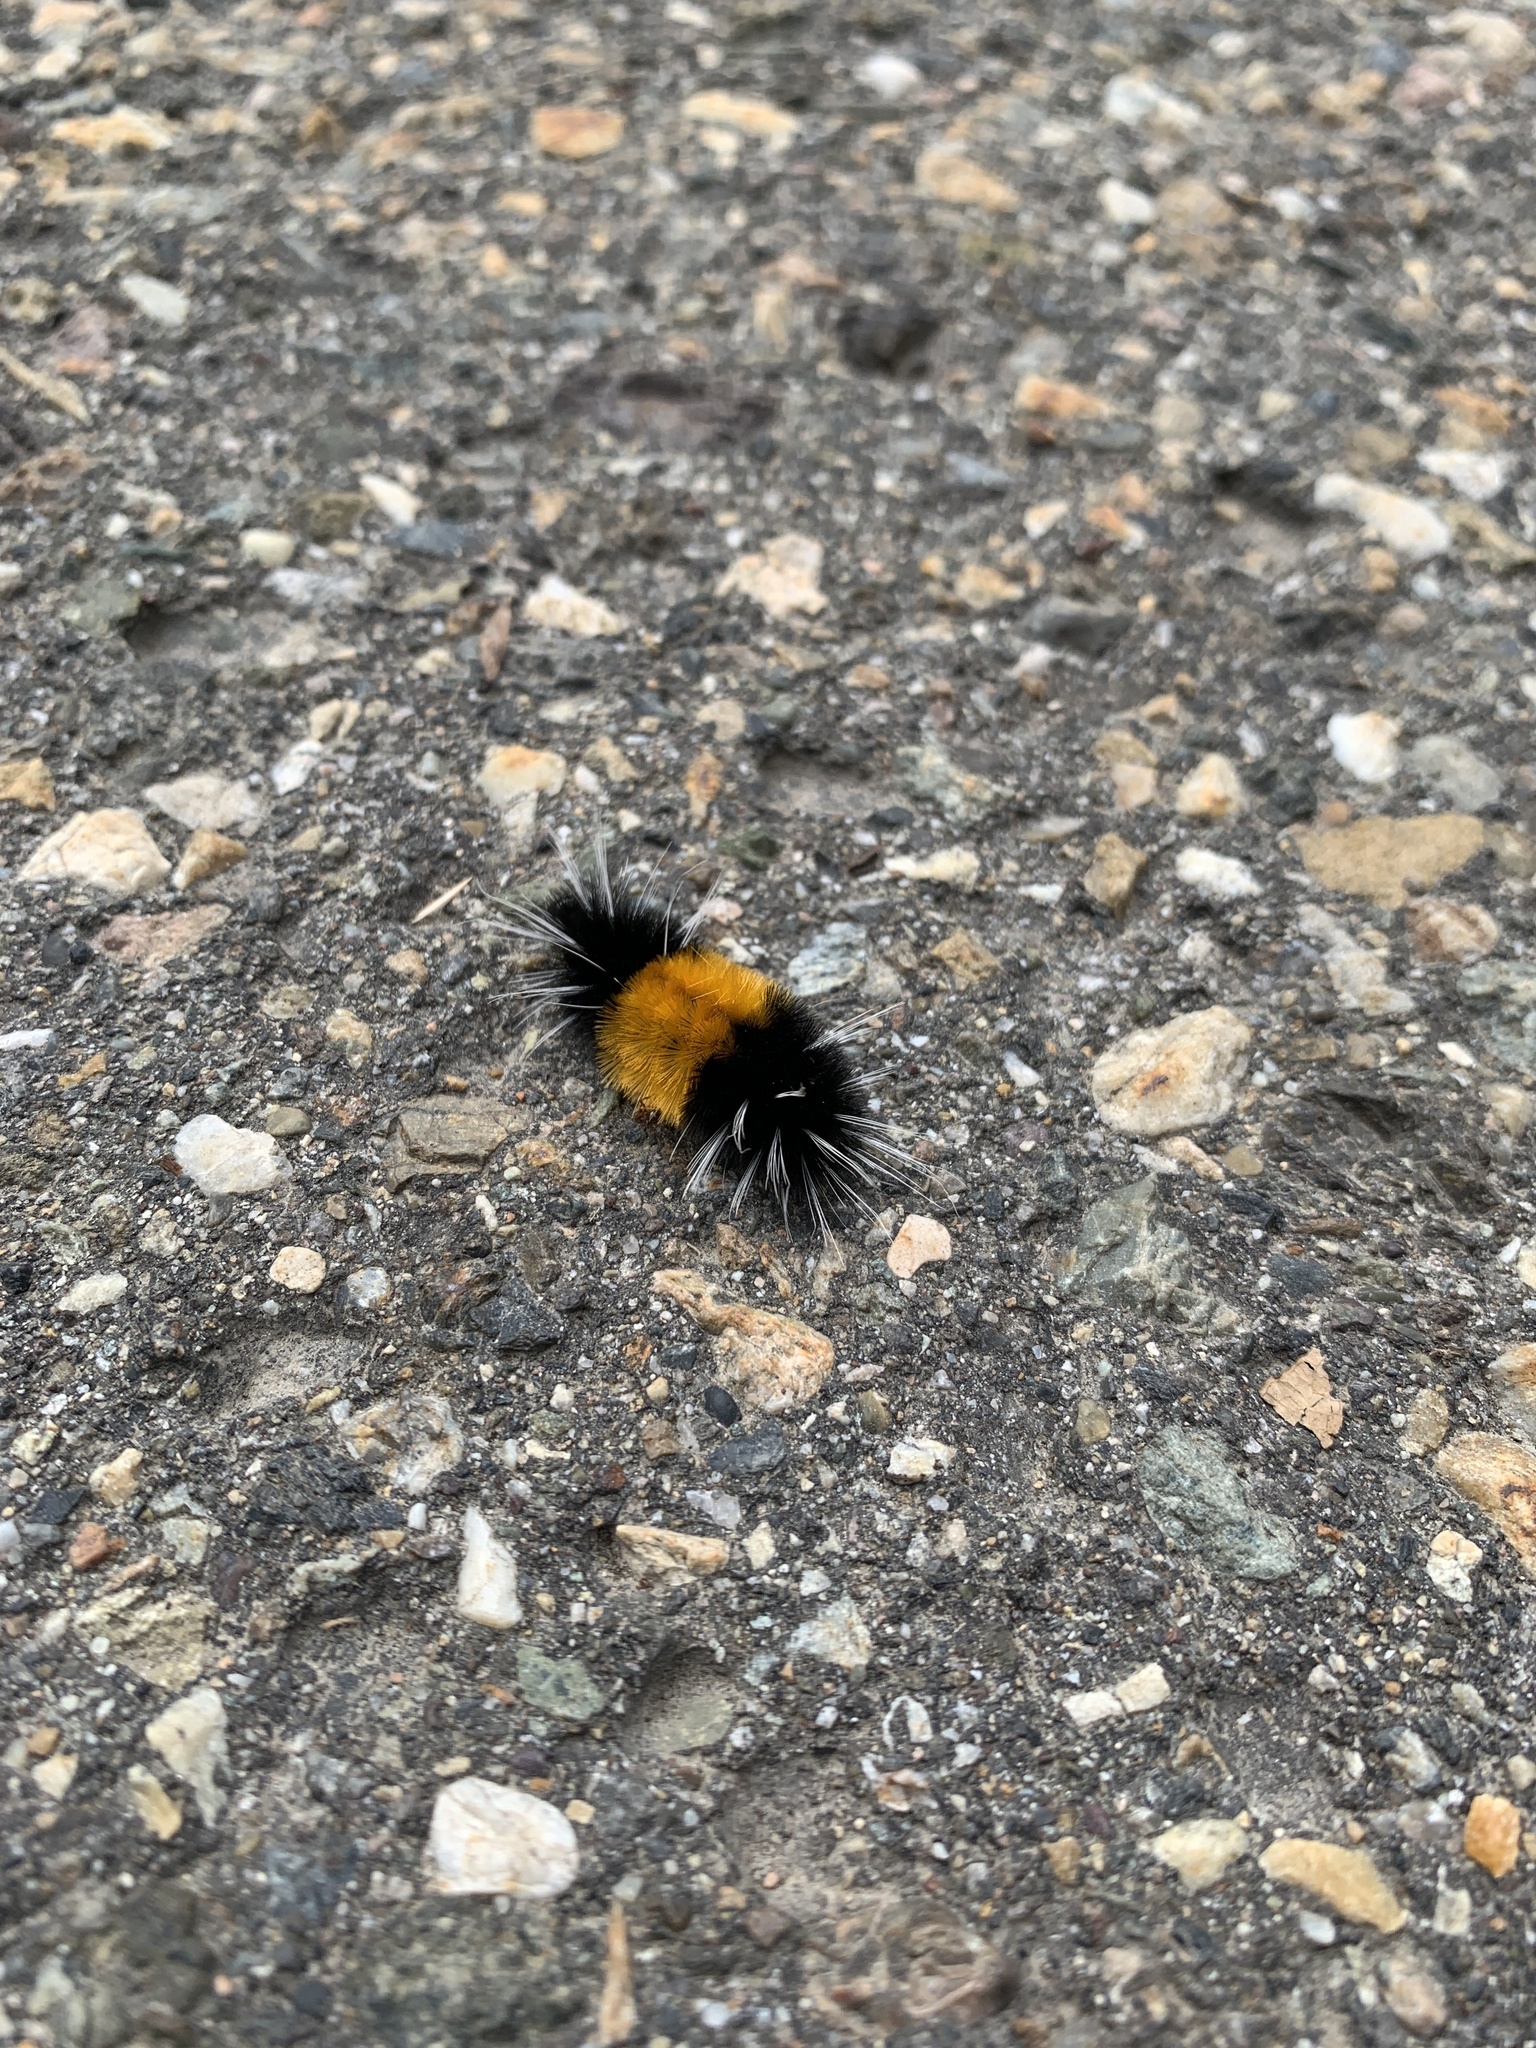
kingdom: Animalia
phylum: Arthropoda
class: Insecta
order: Lepidoptera
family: Erebidae
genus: Lophocampa
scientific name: Lophocampa maculata
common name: Spotted tussock moth
